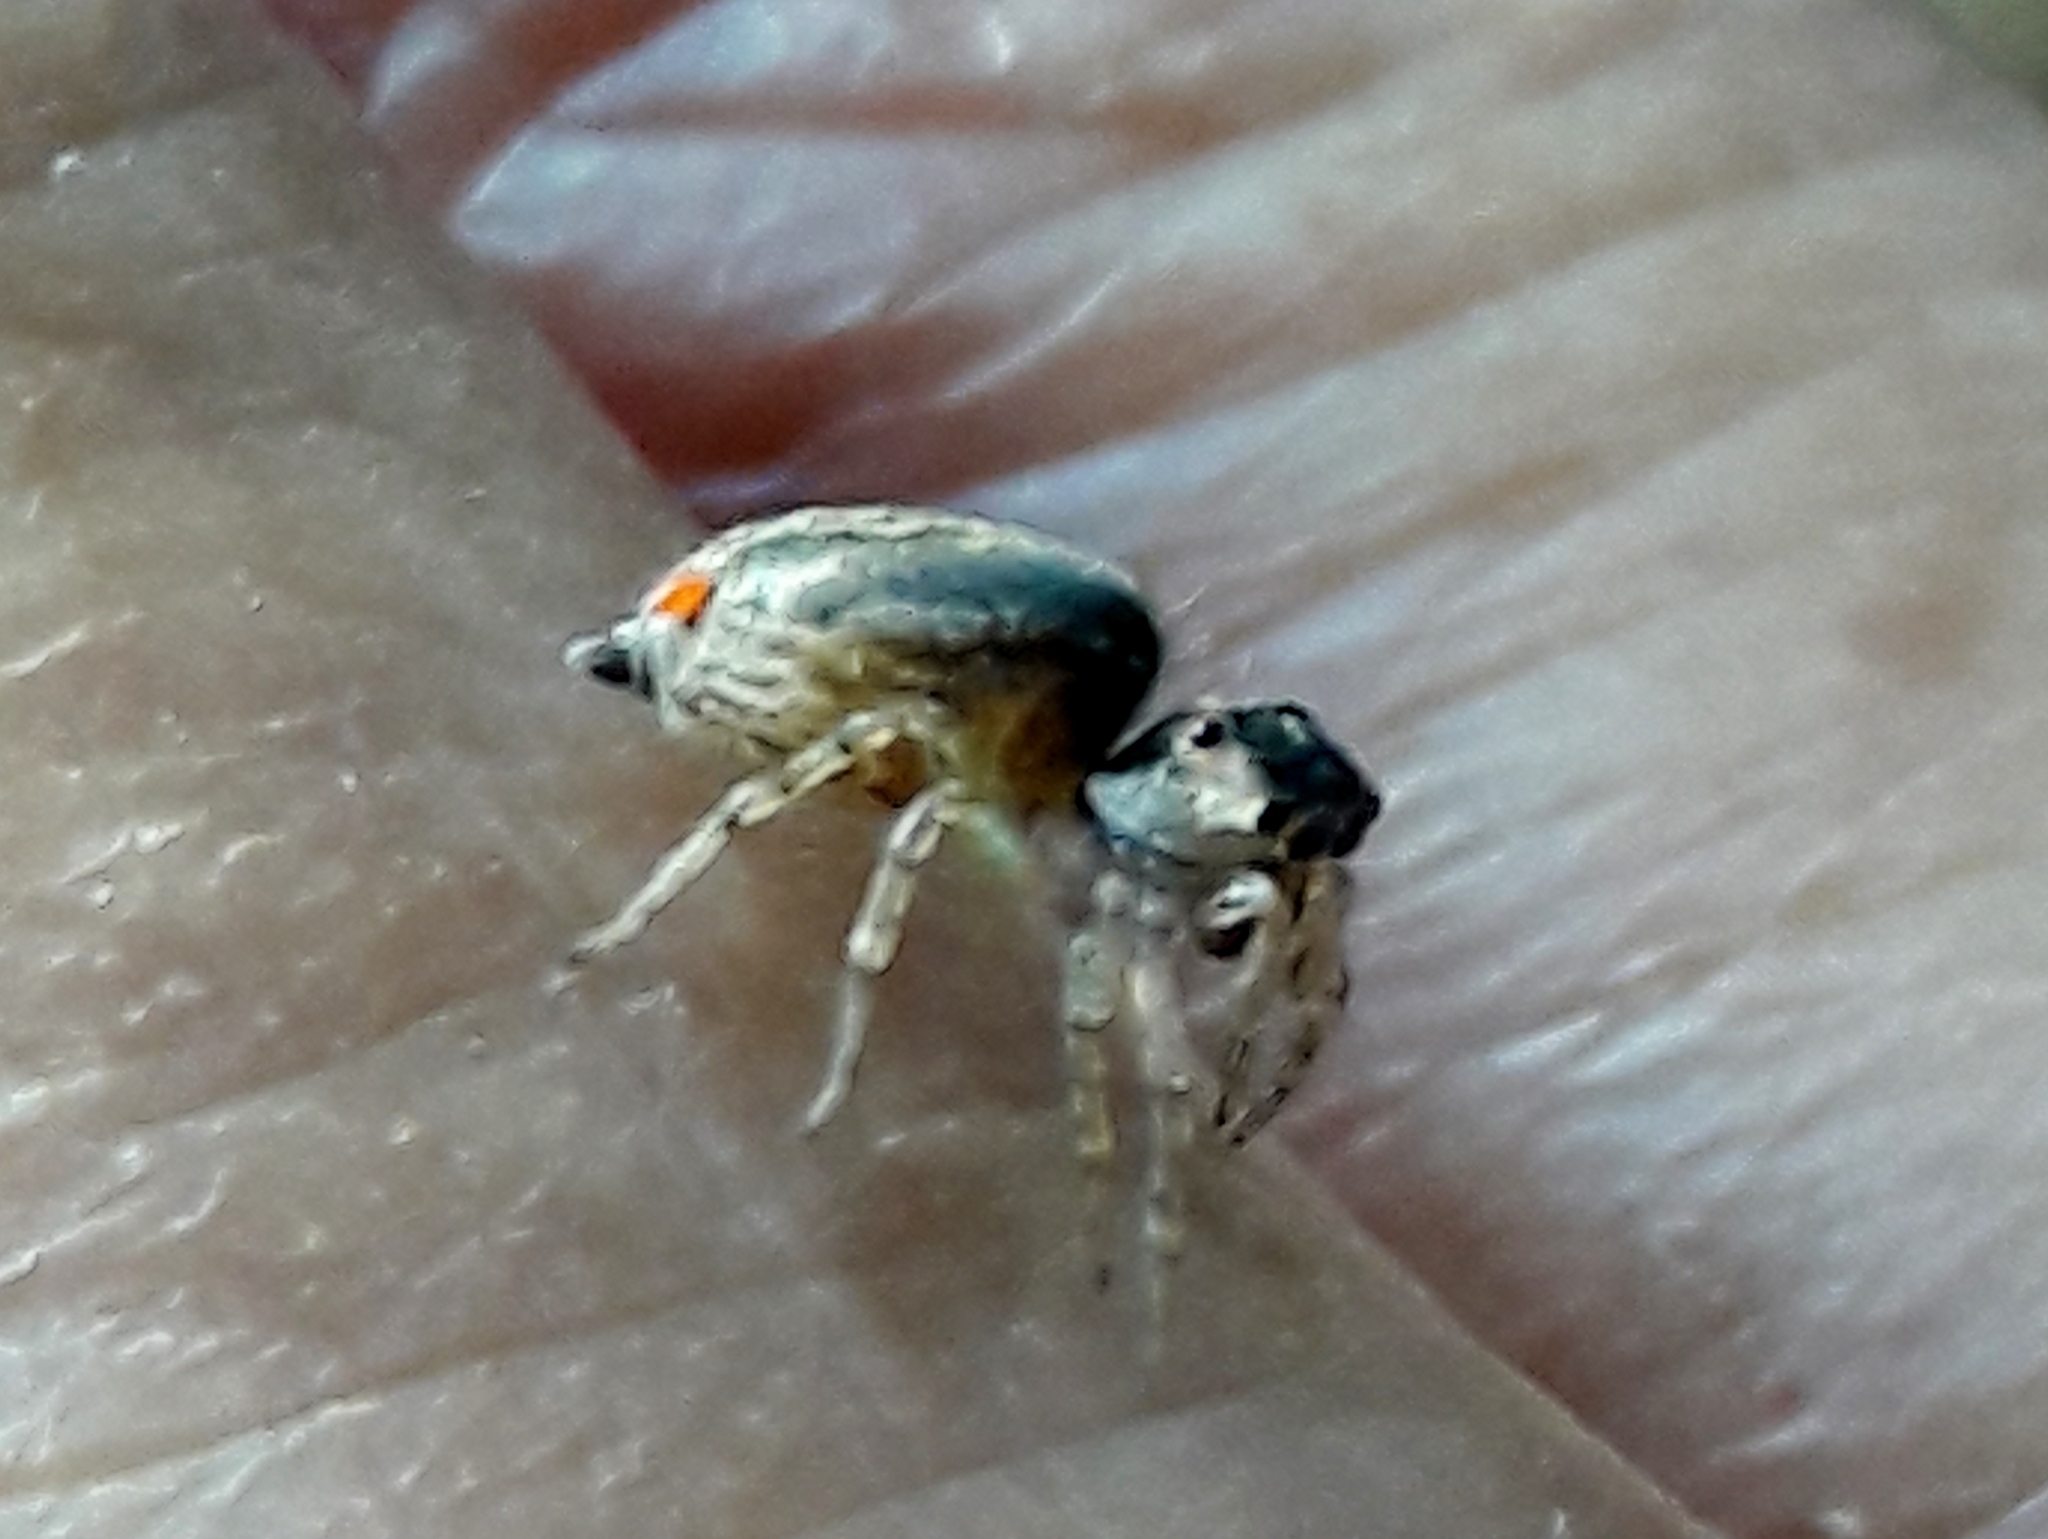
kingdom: Animalia
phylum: Arthropoda
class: Arachnida
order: Araneae
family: Salticidae
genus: Maeota
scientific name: Maeota dichrura
